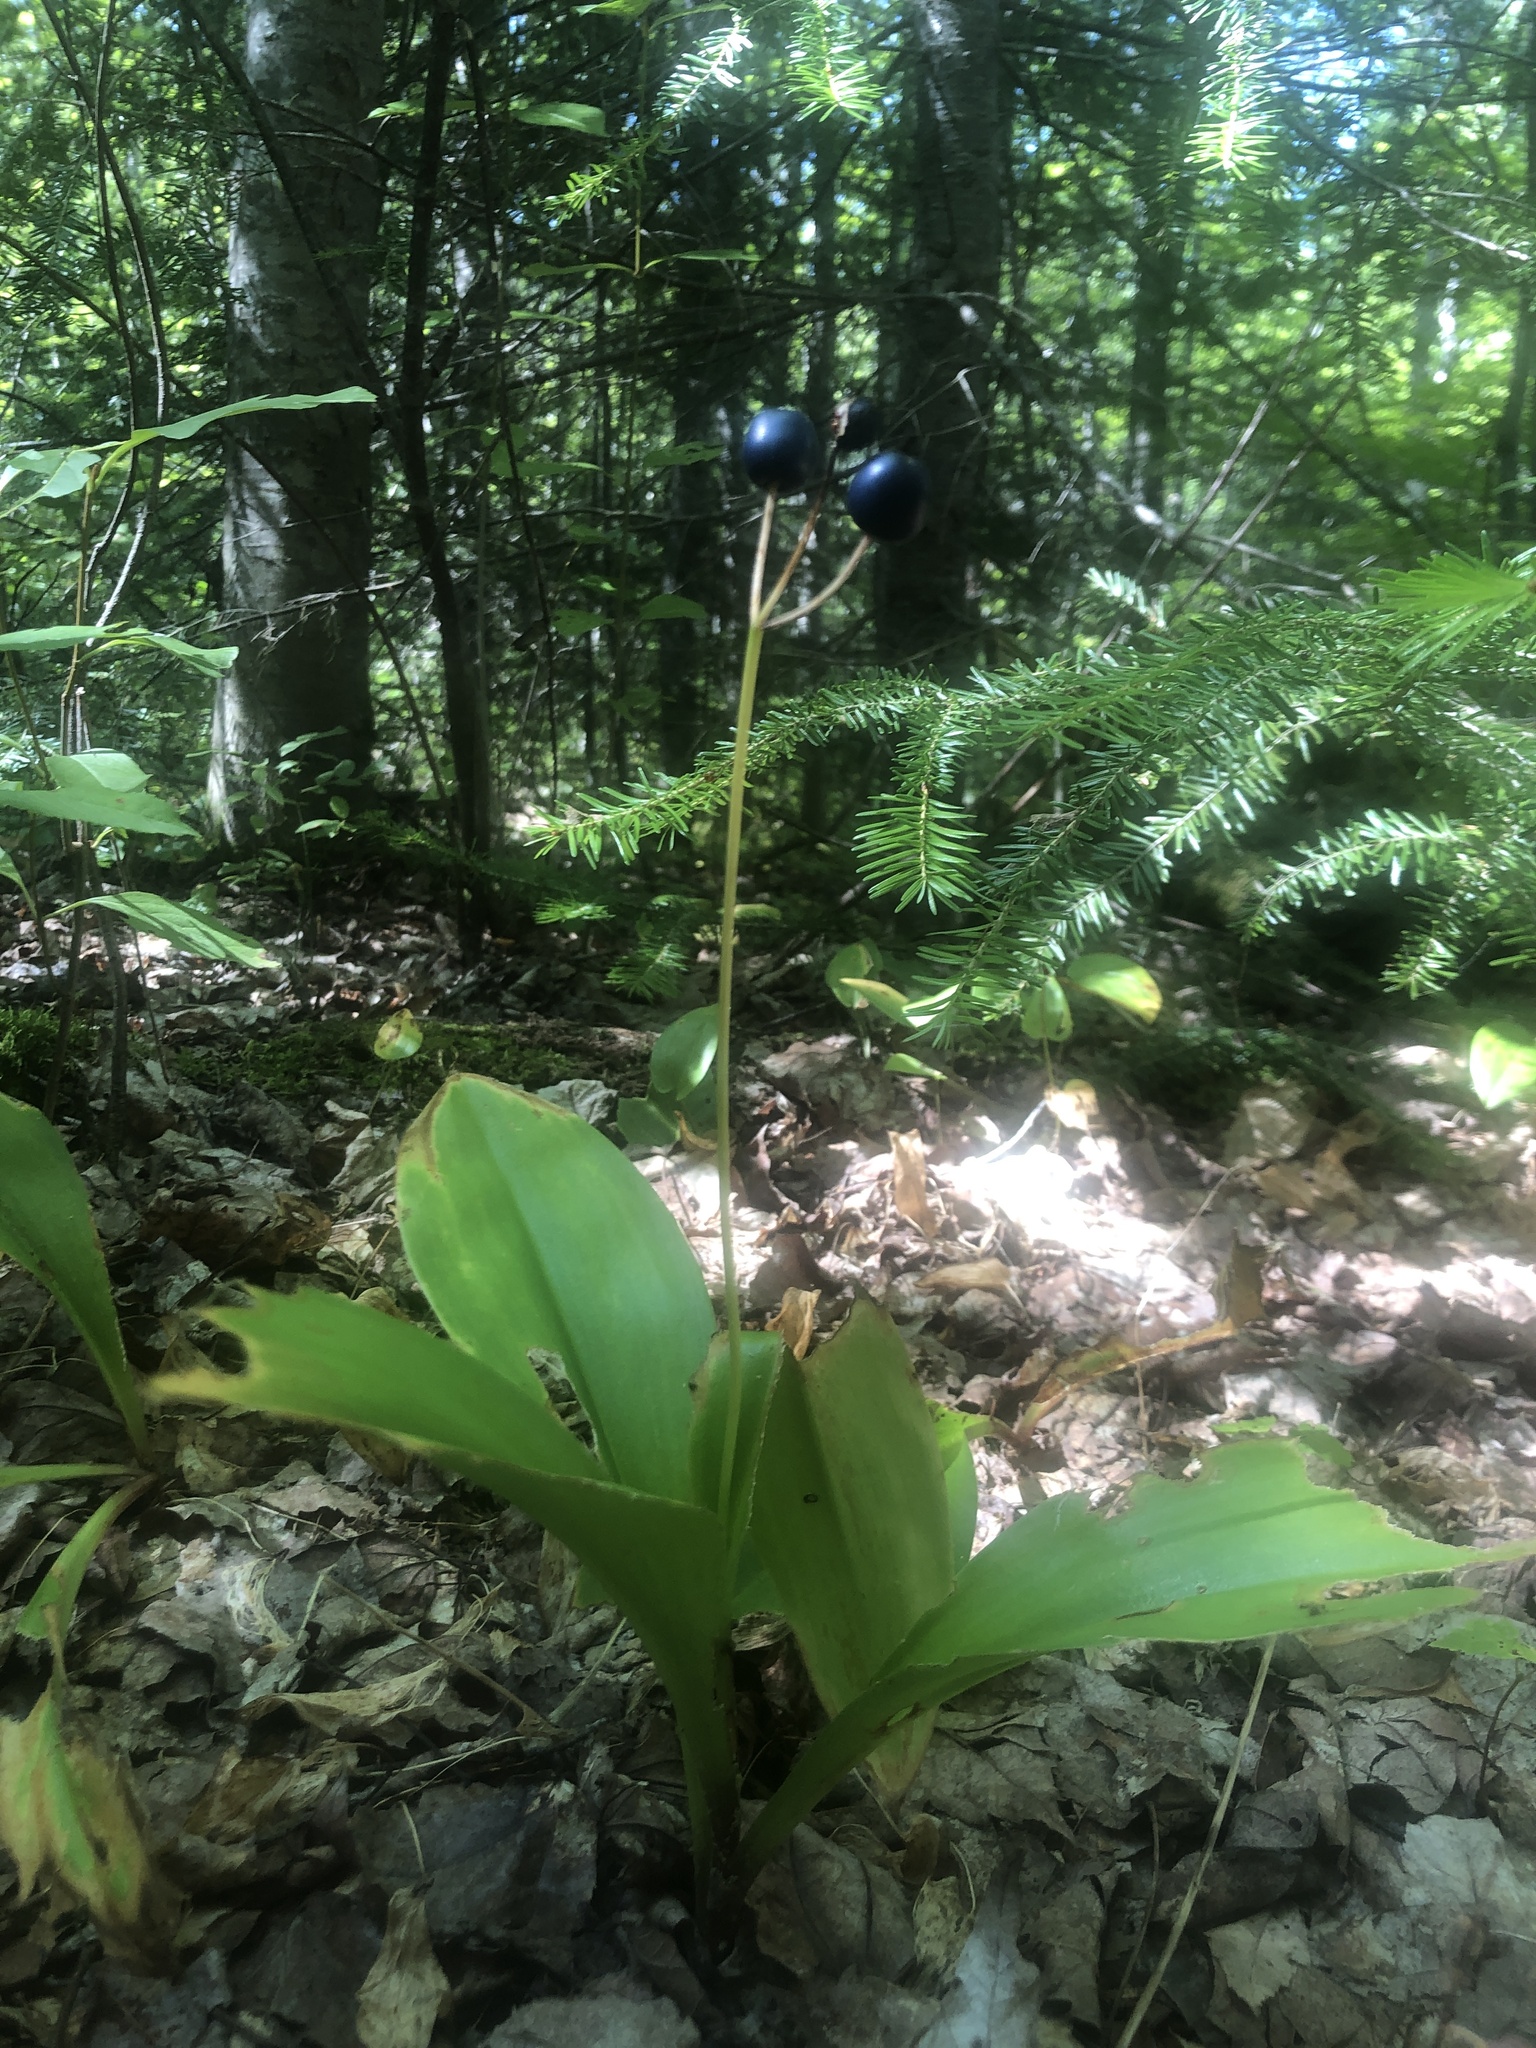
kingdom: Plantae
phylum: Tracheophyta
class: Liliopsida
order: Liliales
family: Liliaceae
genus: Clintonia
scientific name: Clintonia borealis
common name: Yellow clintonia
